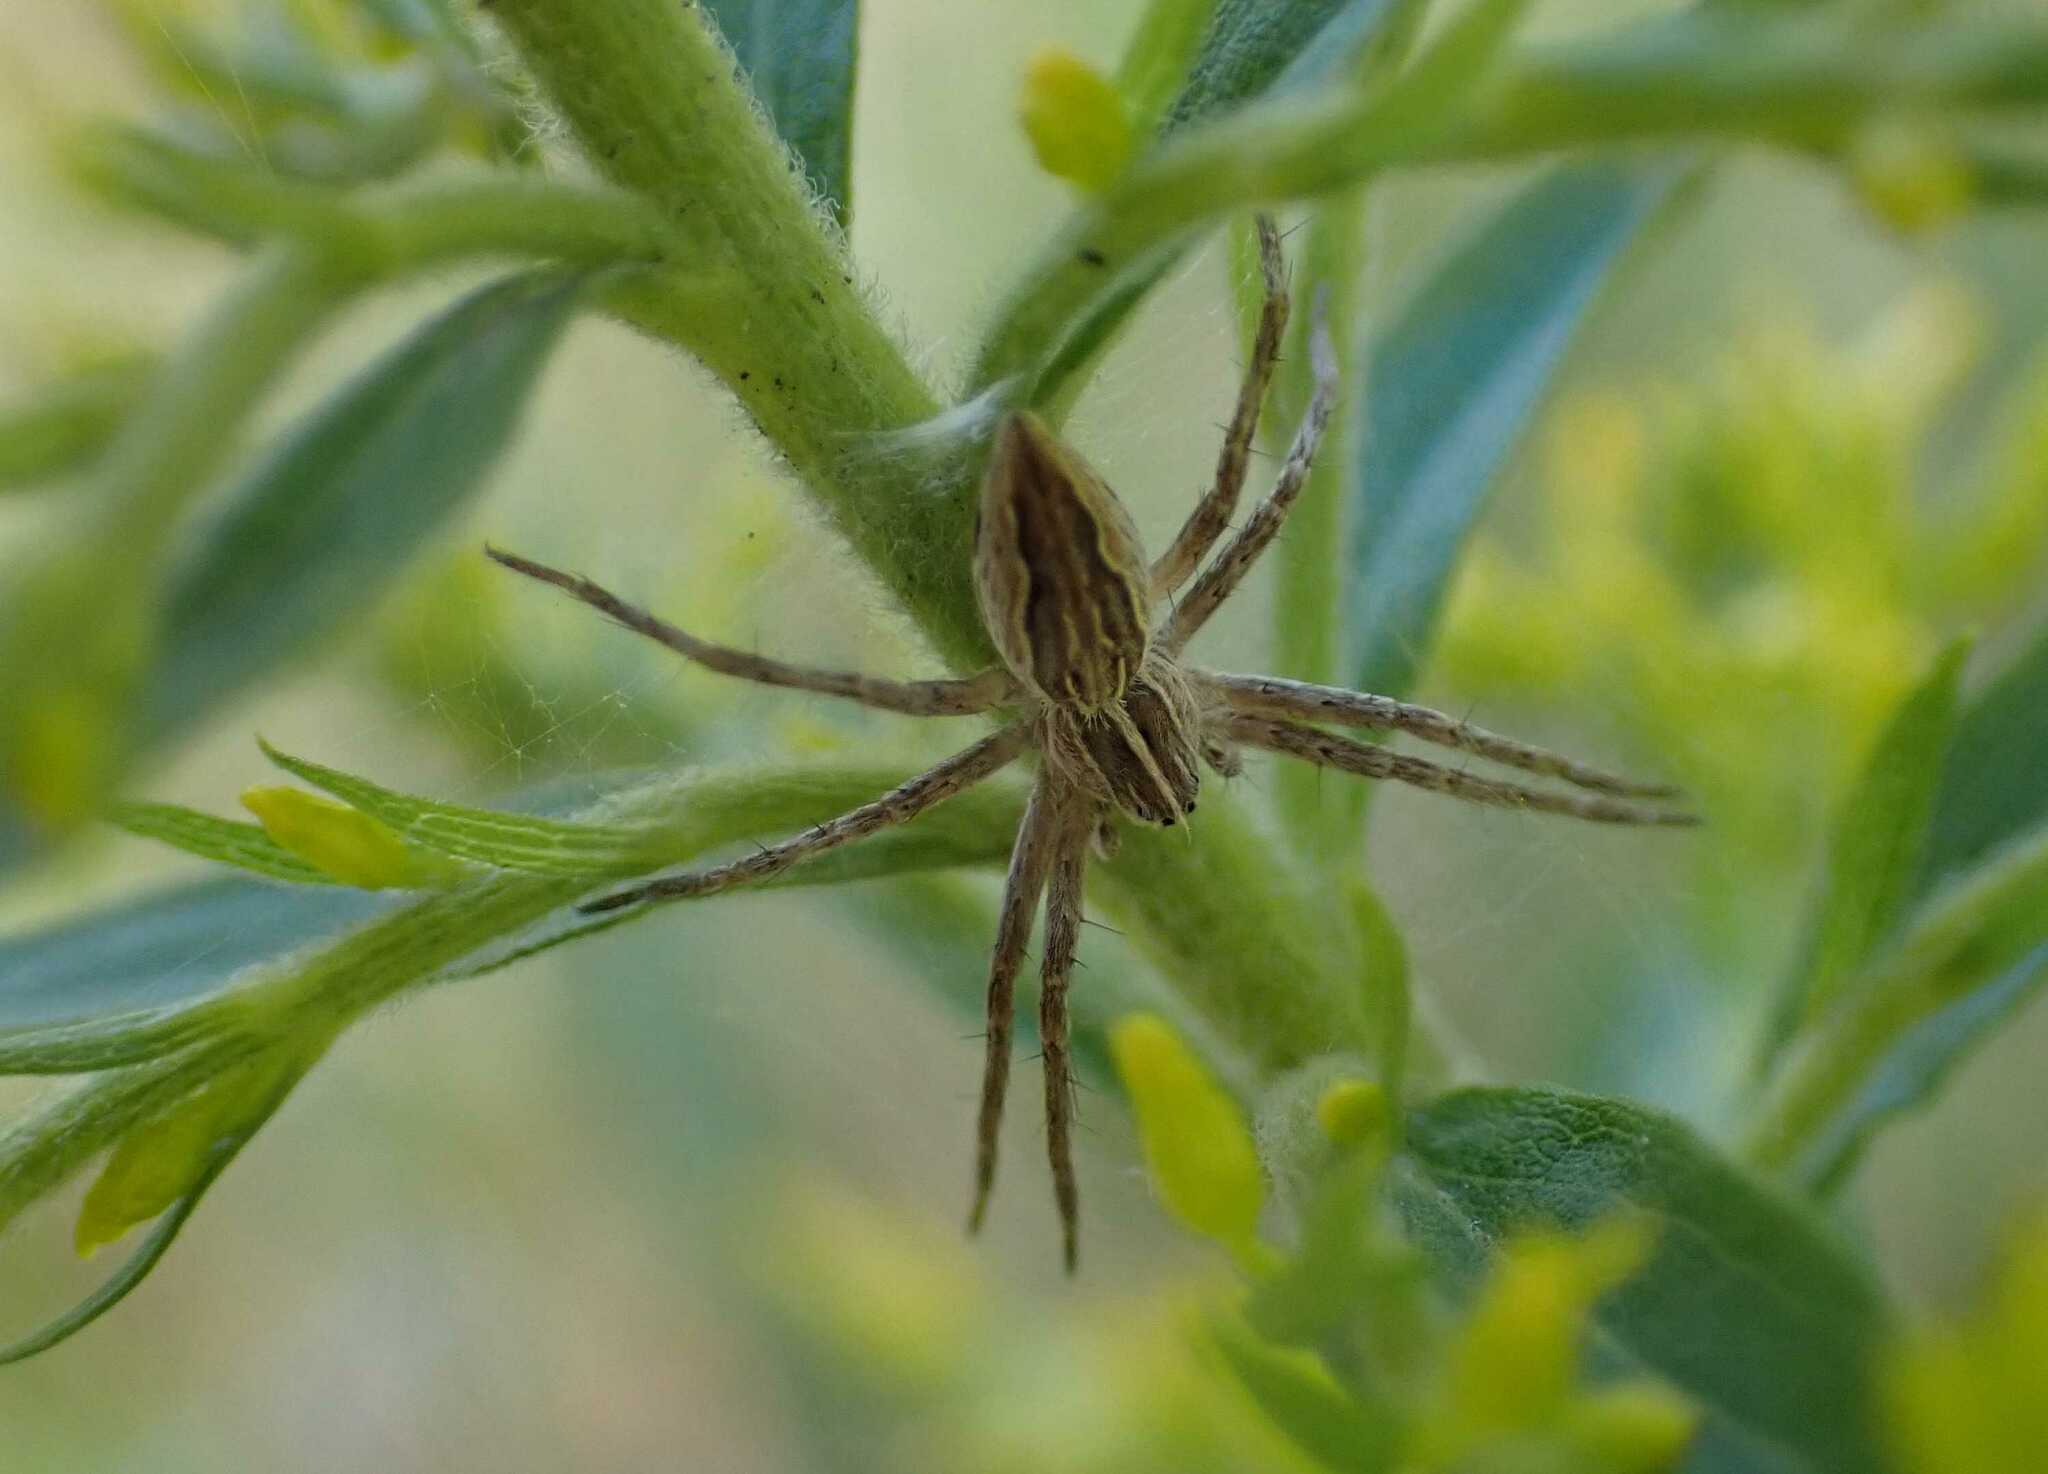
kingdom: Animalia
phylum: Arthropoda
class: Arachnida
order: Araneae
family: Pisauridae
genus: Pisaura
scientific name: Pisaura mirabilis
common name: Tent spider
